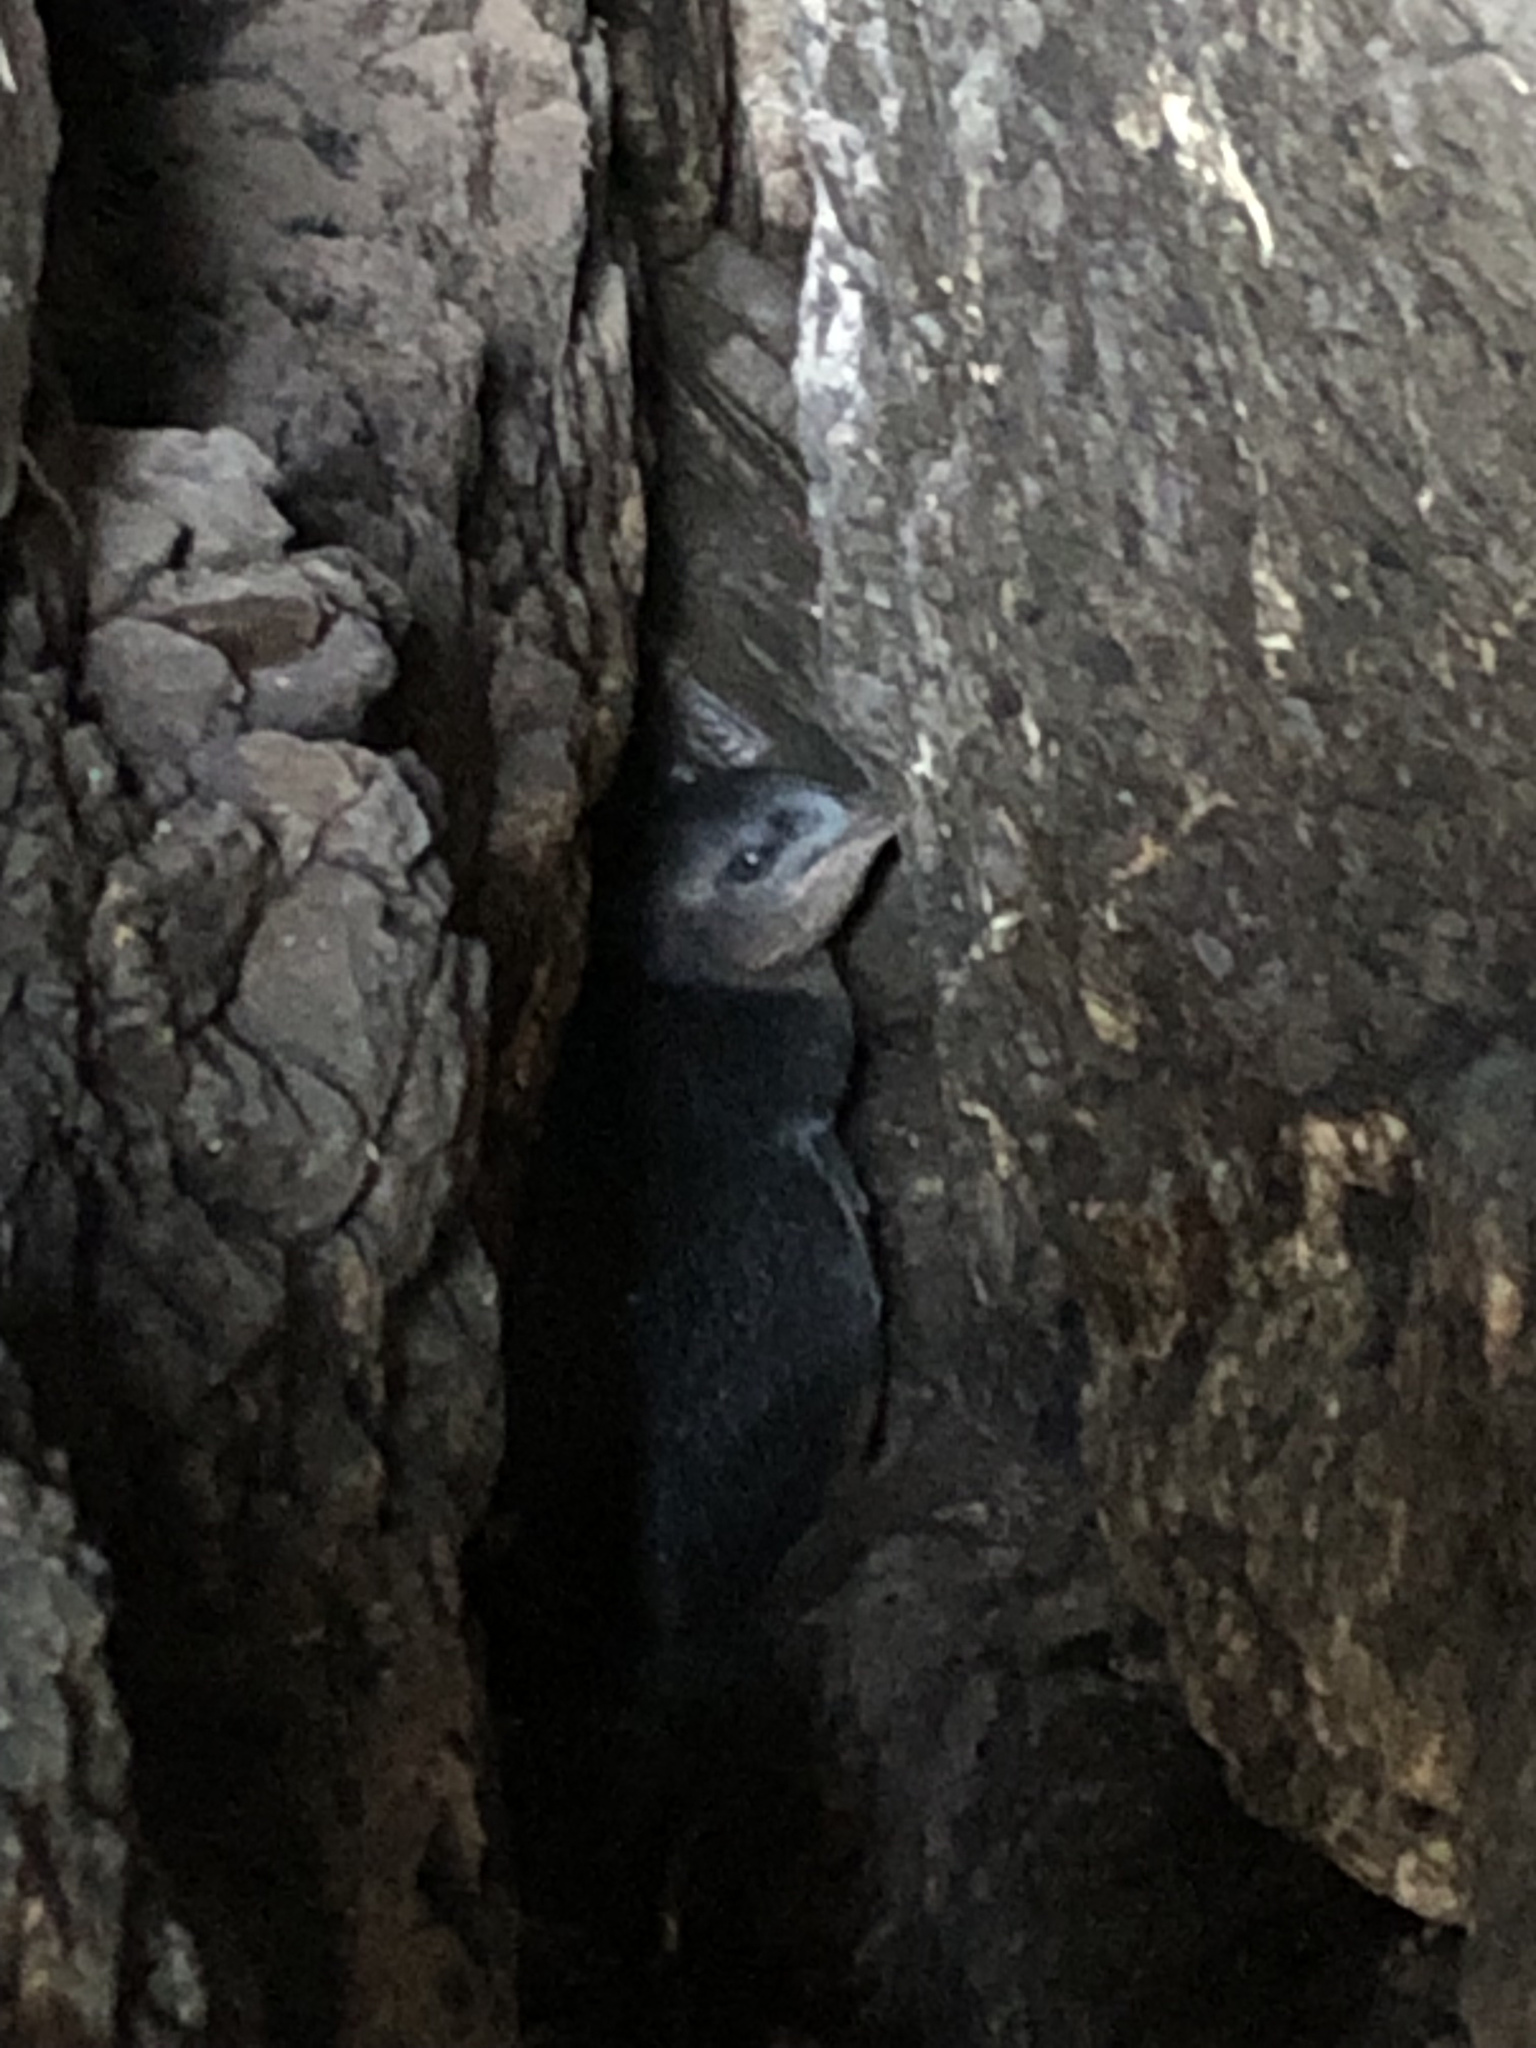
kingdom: Animalia
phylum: Chordata
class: Aves
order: Sphenisciformes
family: Spheniscidae
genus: Eudyptula
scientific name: Eudyptula minor
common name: Little penguin
